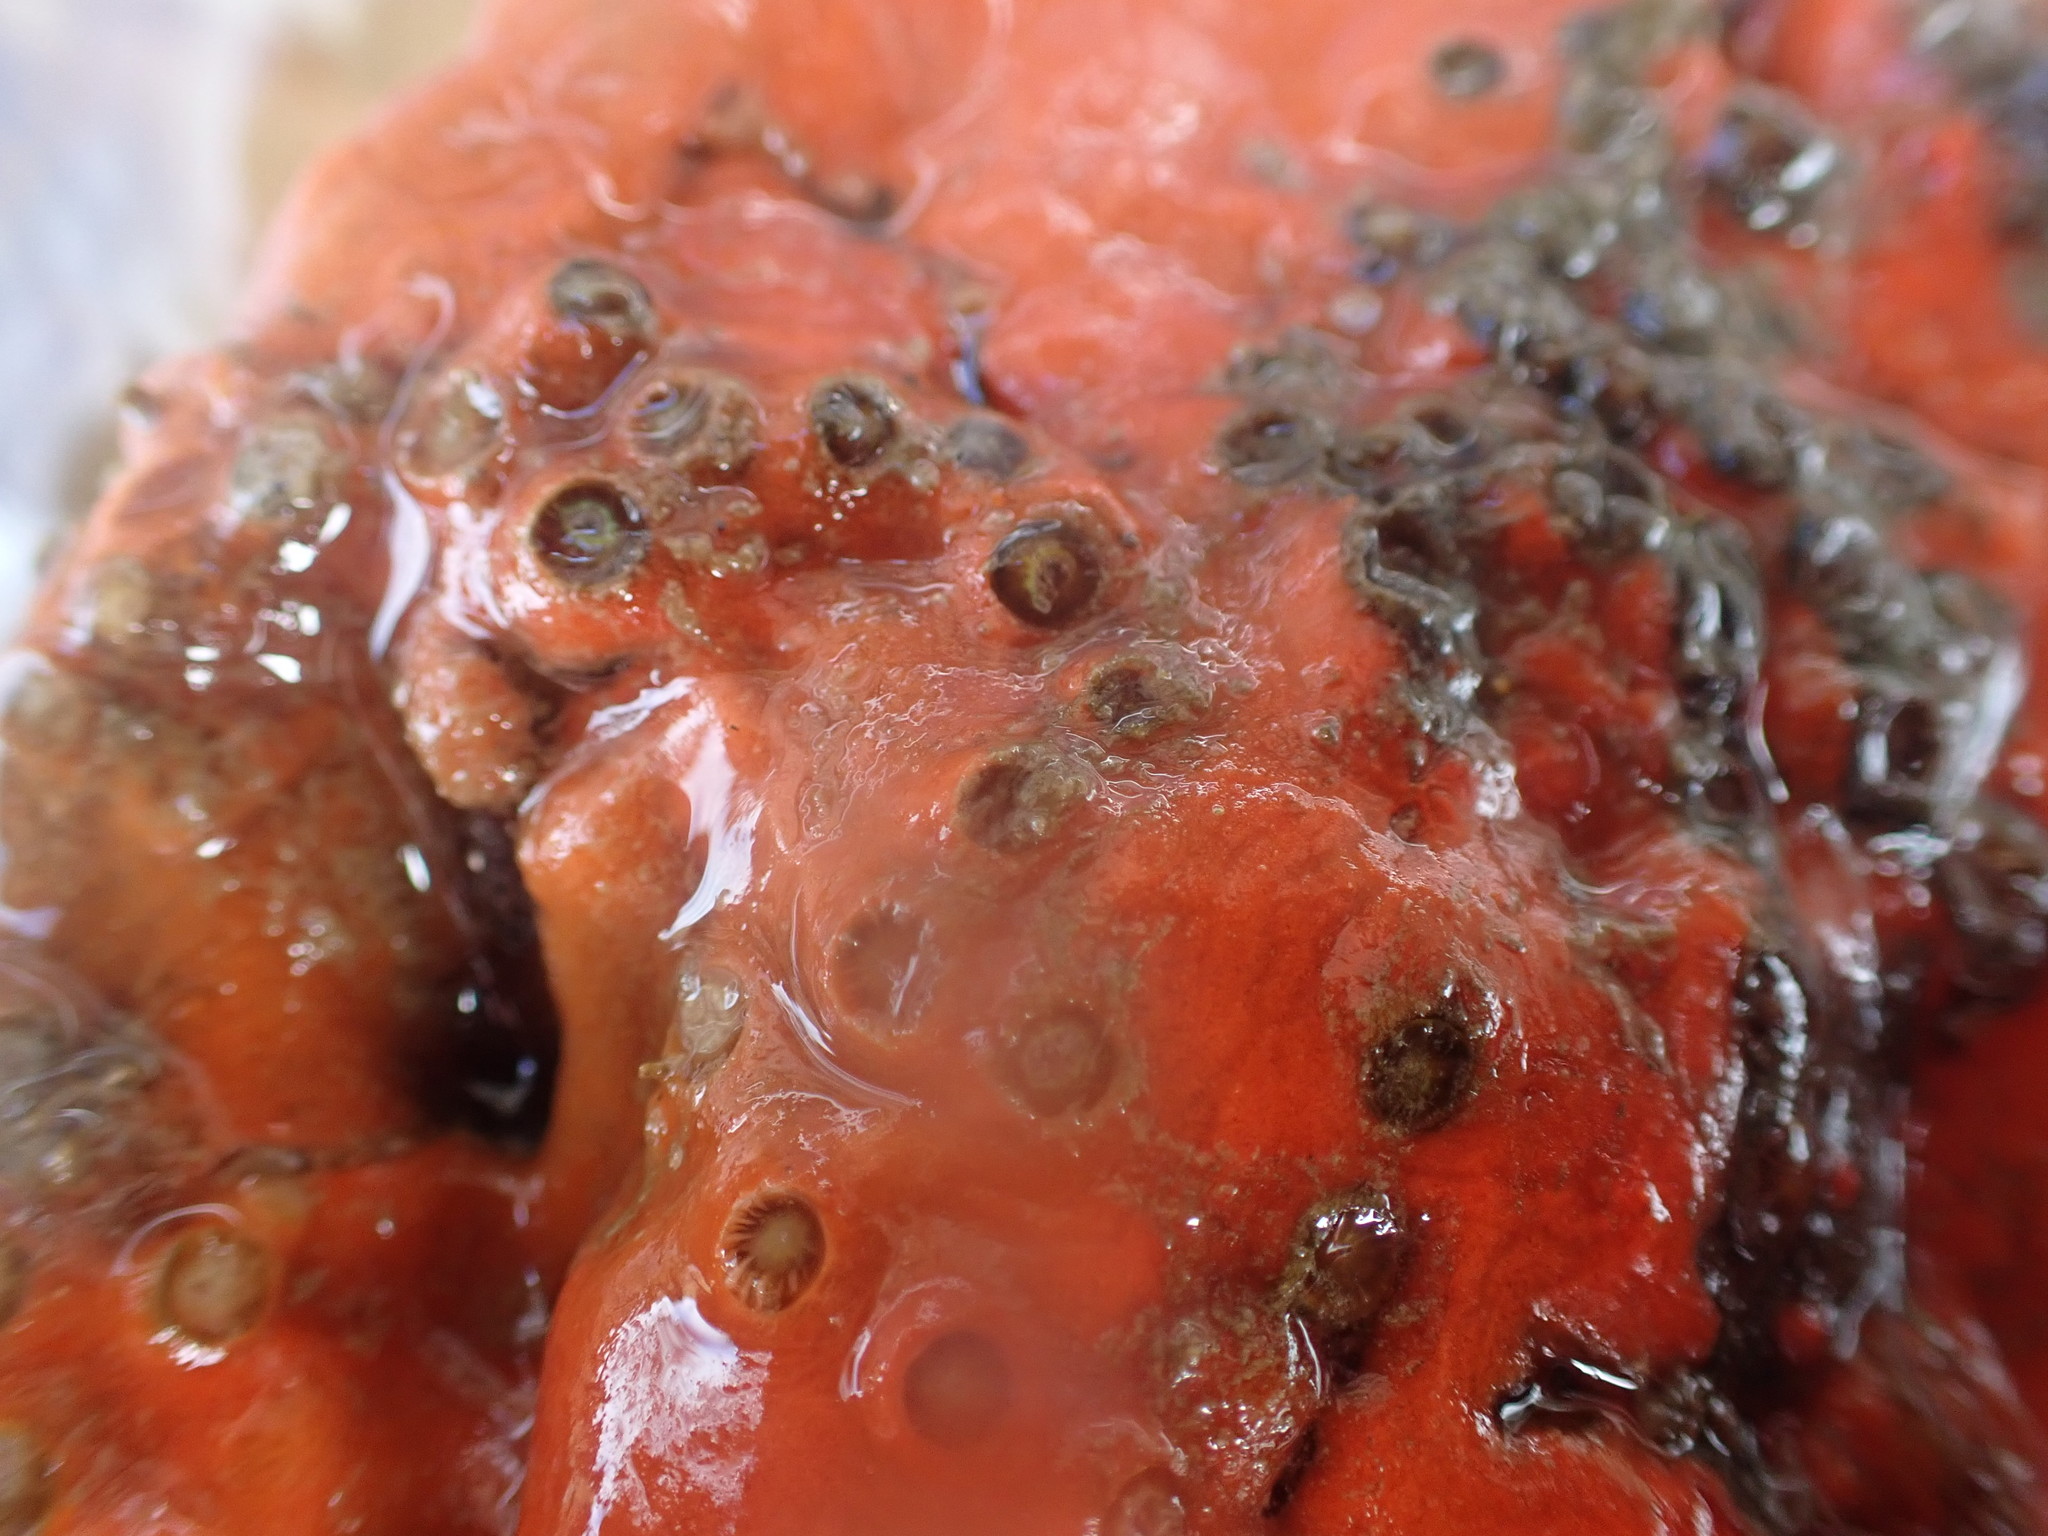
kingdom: Animalia
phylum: Cnidaria
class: Anthozoa
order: Scleractinia
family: Rhizangiidae
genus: Culicia
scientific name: Culicia rubeola
